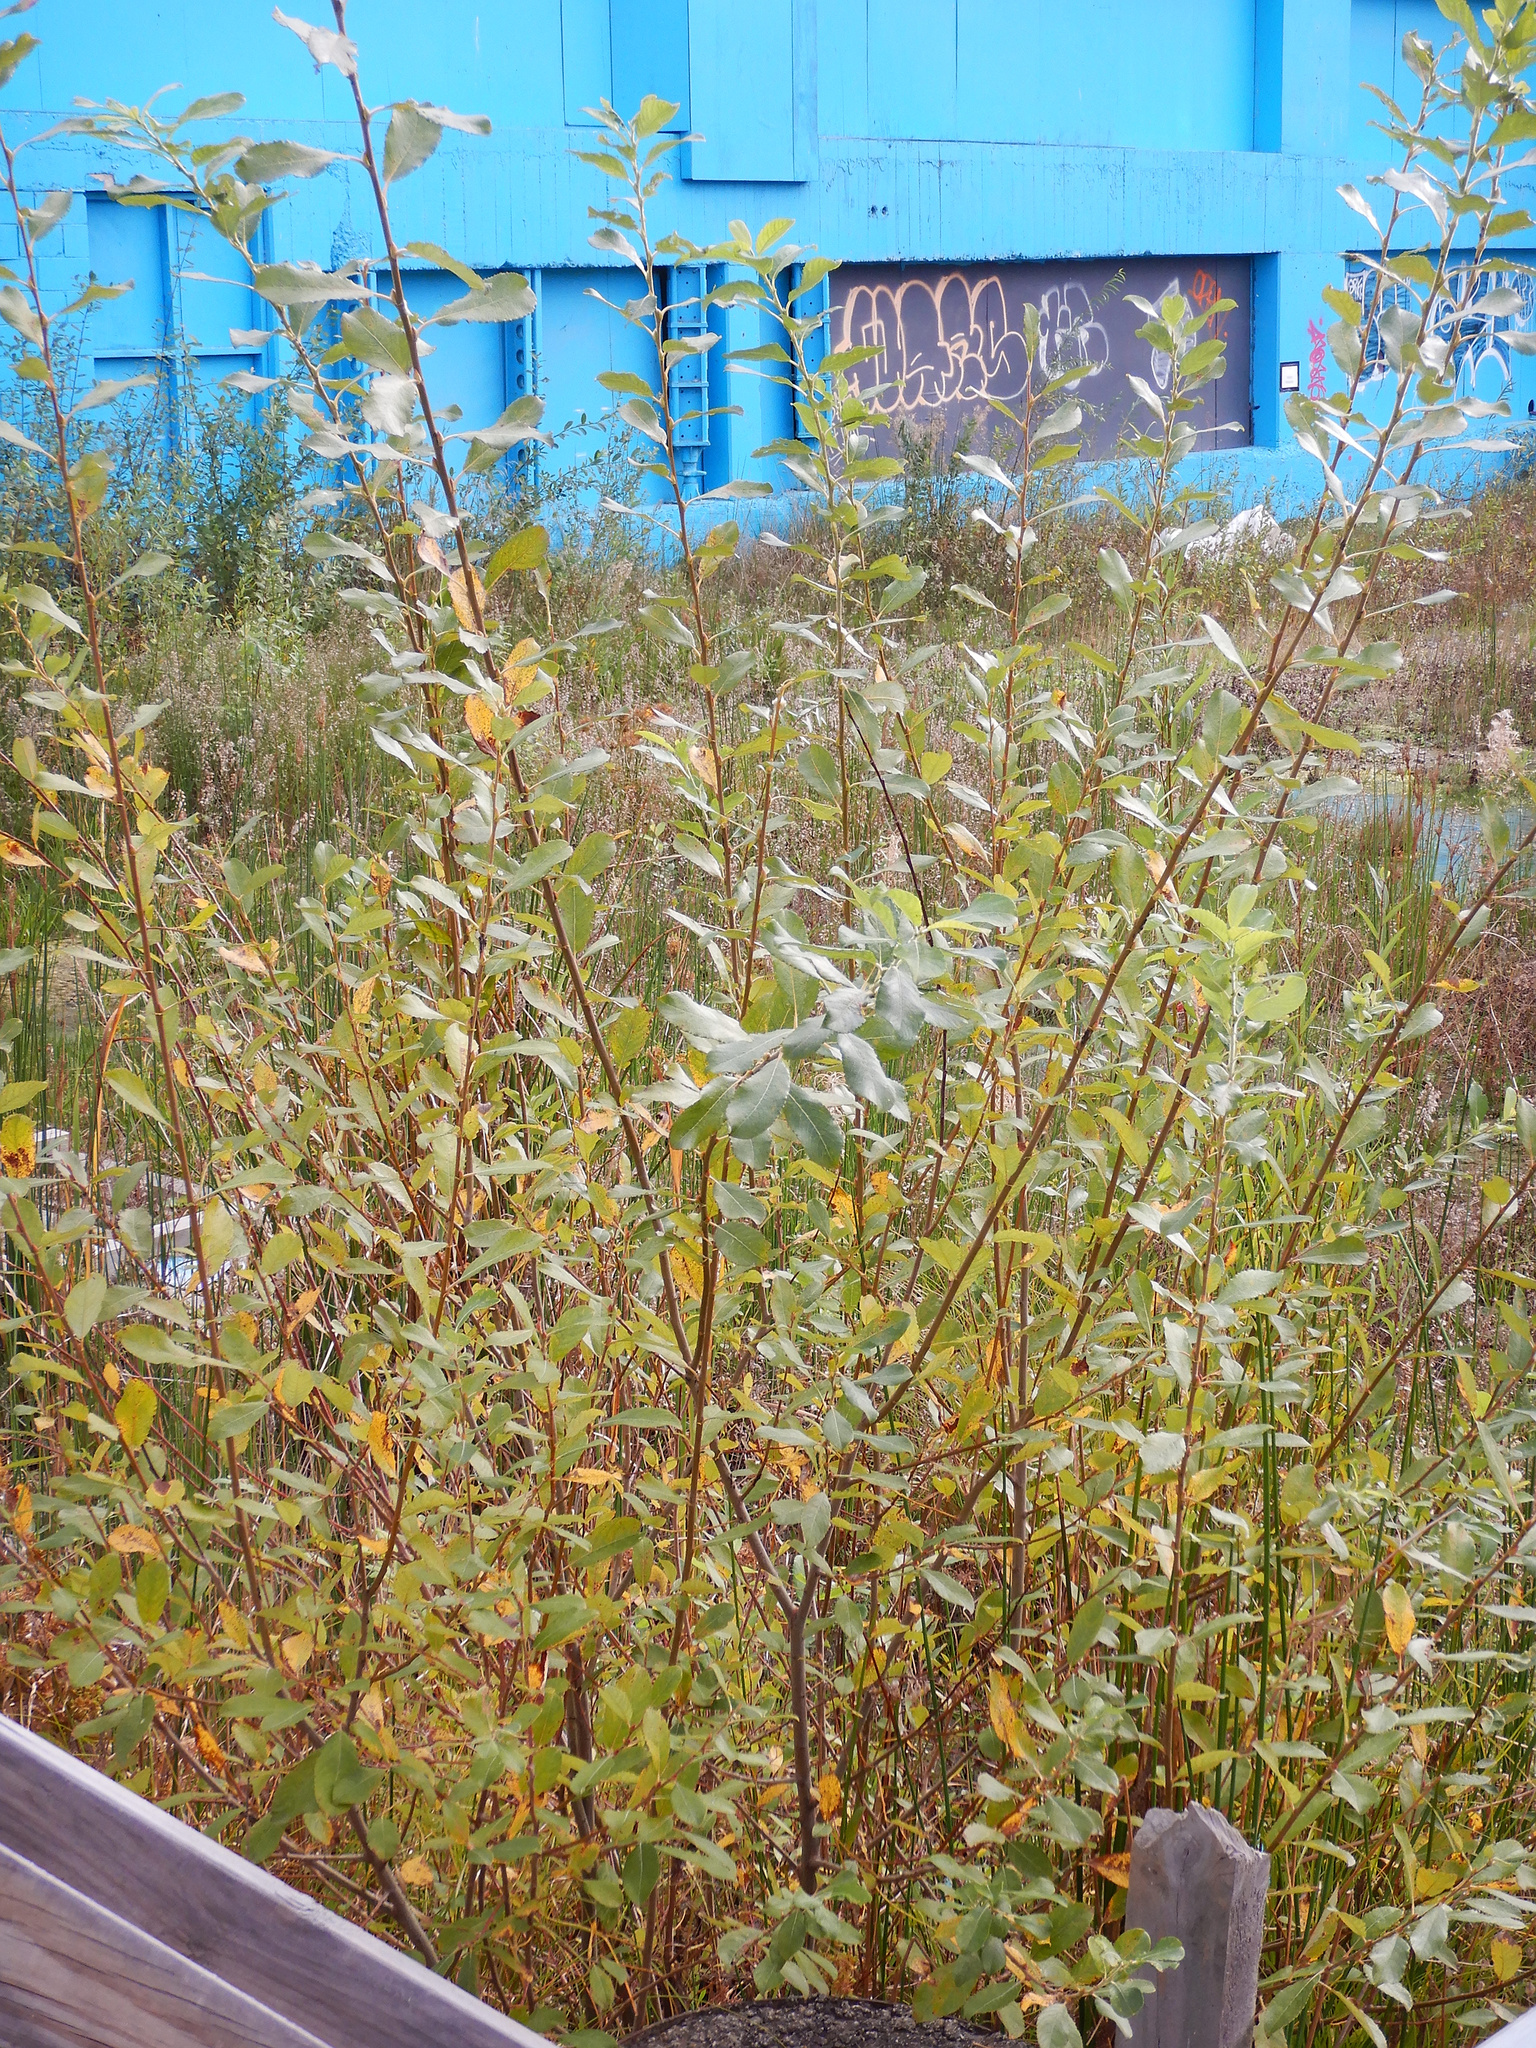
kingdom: Plantae
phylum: Tracheophyta
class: Magnoliopsida
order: Malpighiales
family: Salicaceae
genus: Salix
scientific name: Salix fragilis
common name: Crack willow
